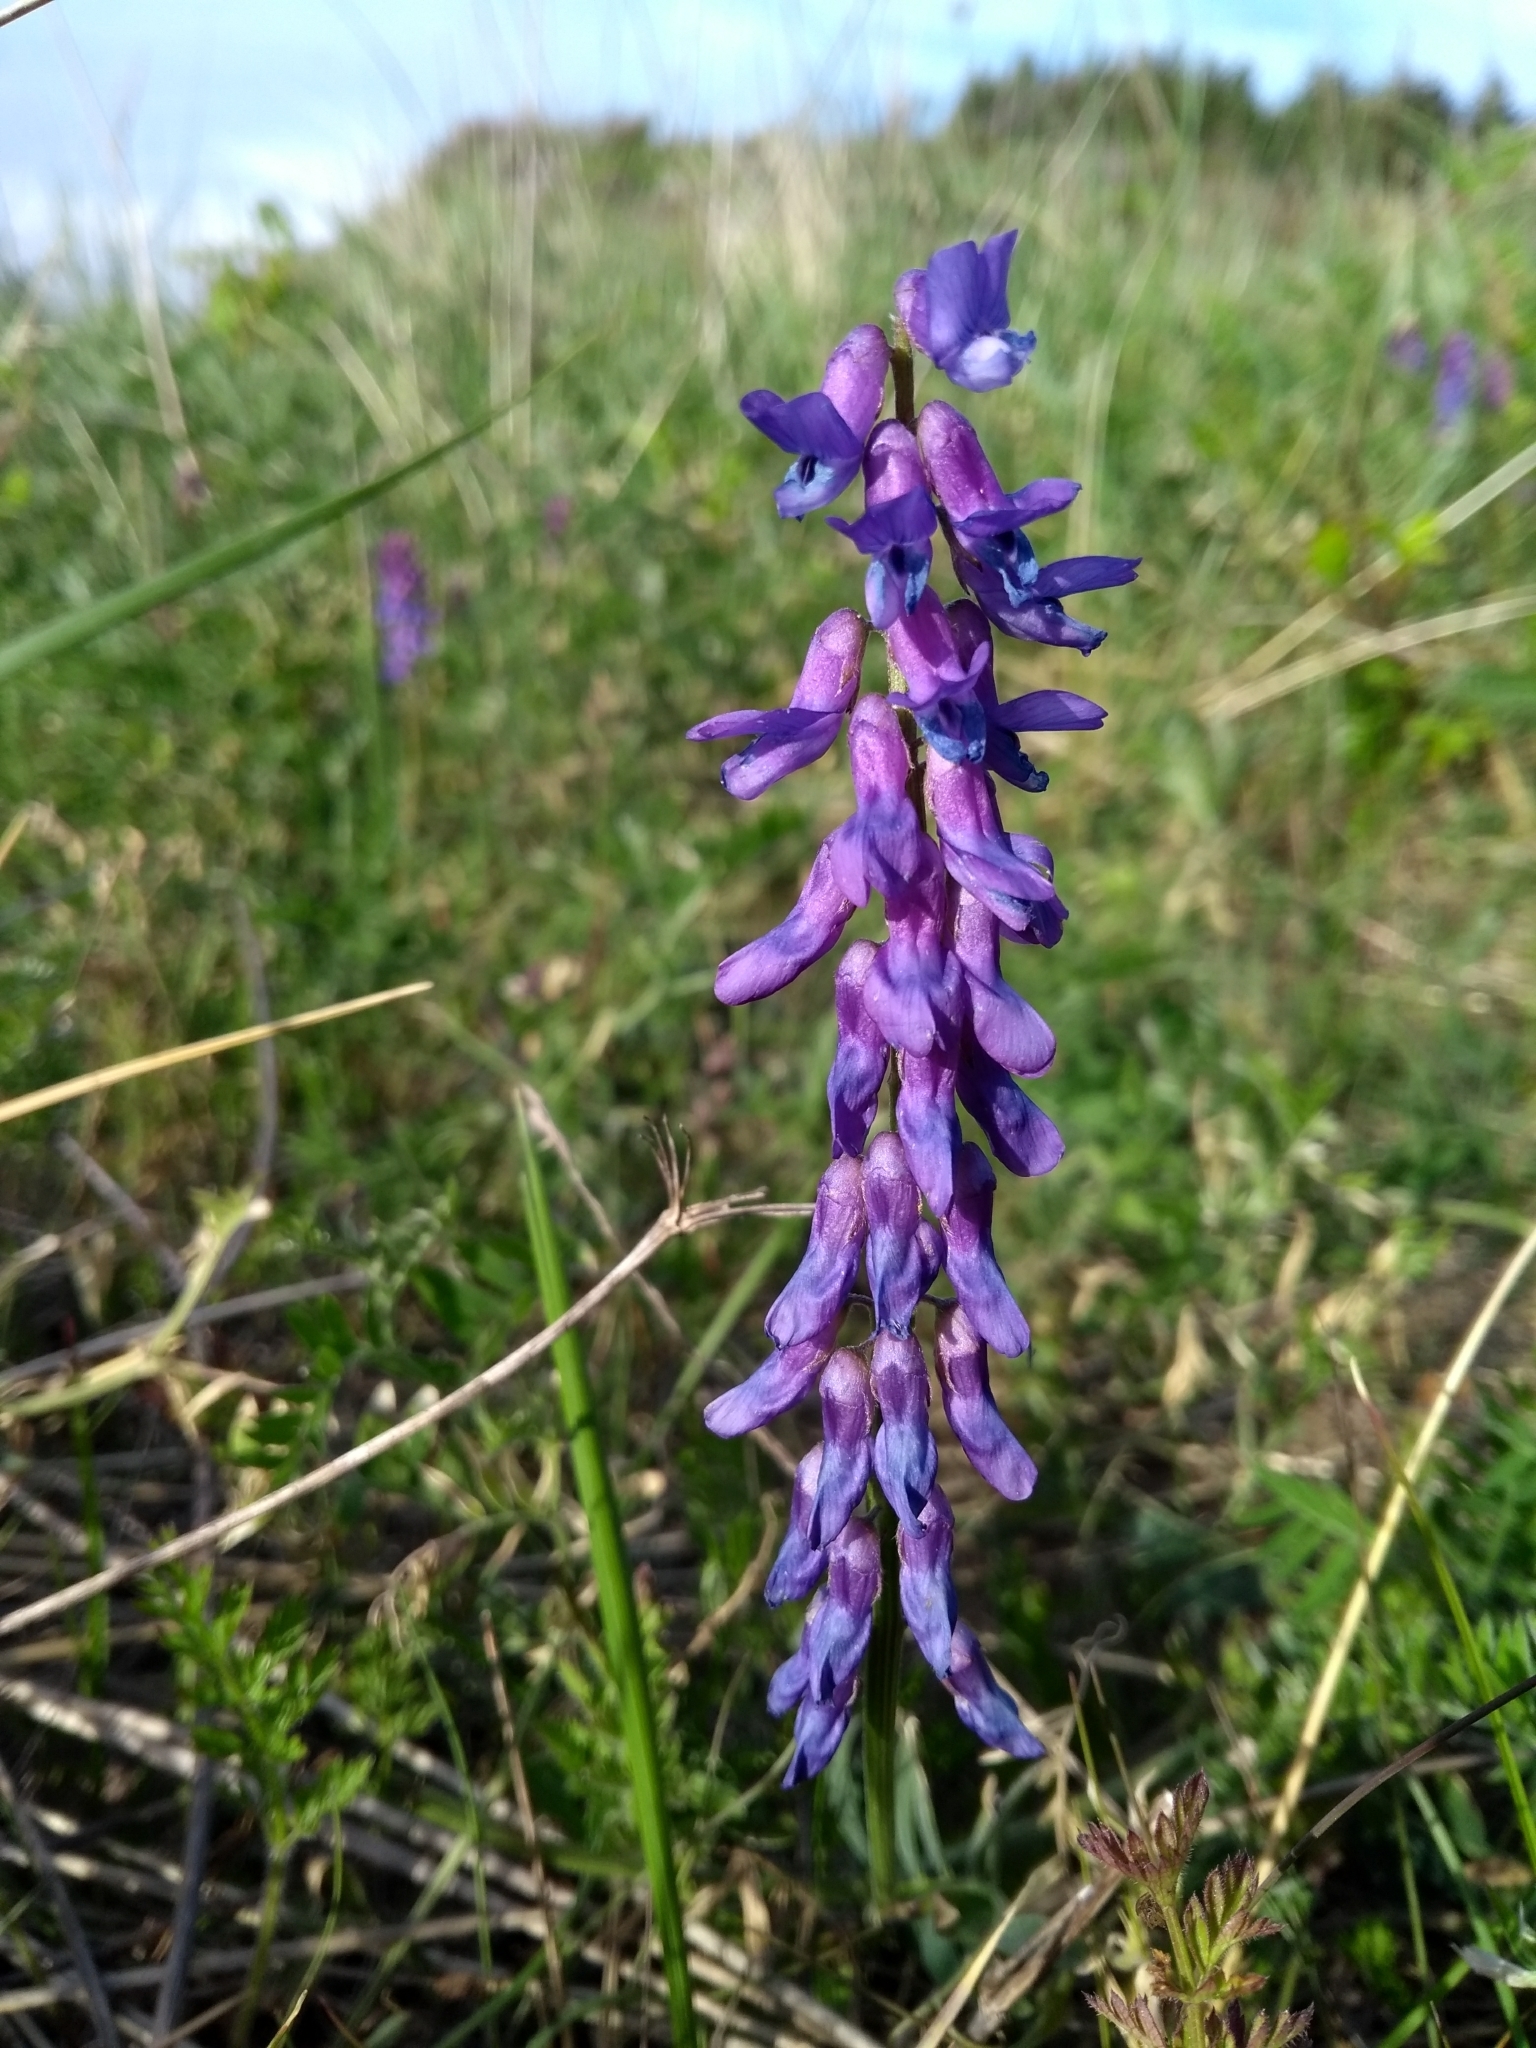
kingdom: Plantae
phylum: Tracheophyta
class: Magnoliopsida
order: Fabales
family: Fabaceae
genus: Vicia
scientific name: Vicia cracca
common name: Bird vetch
